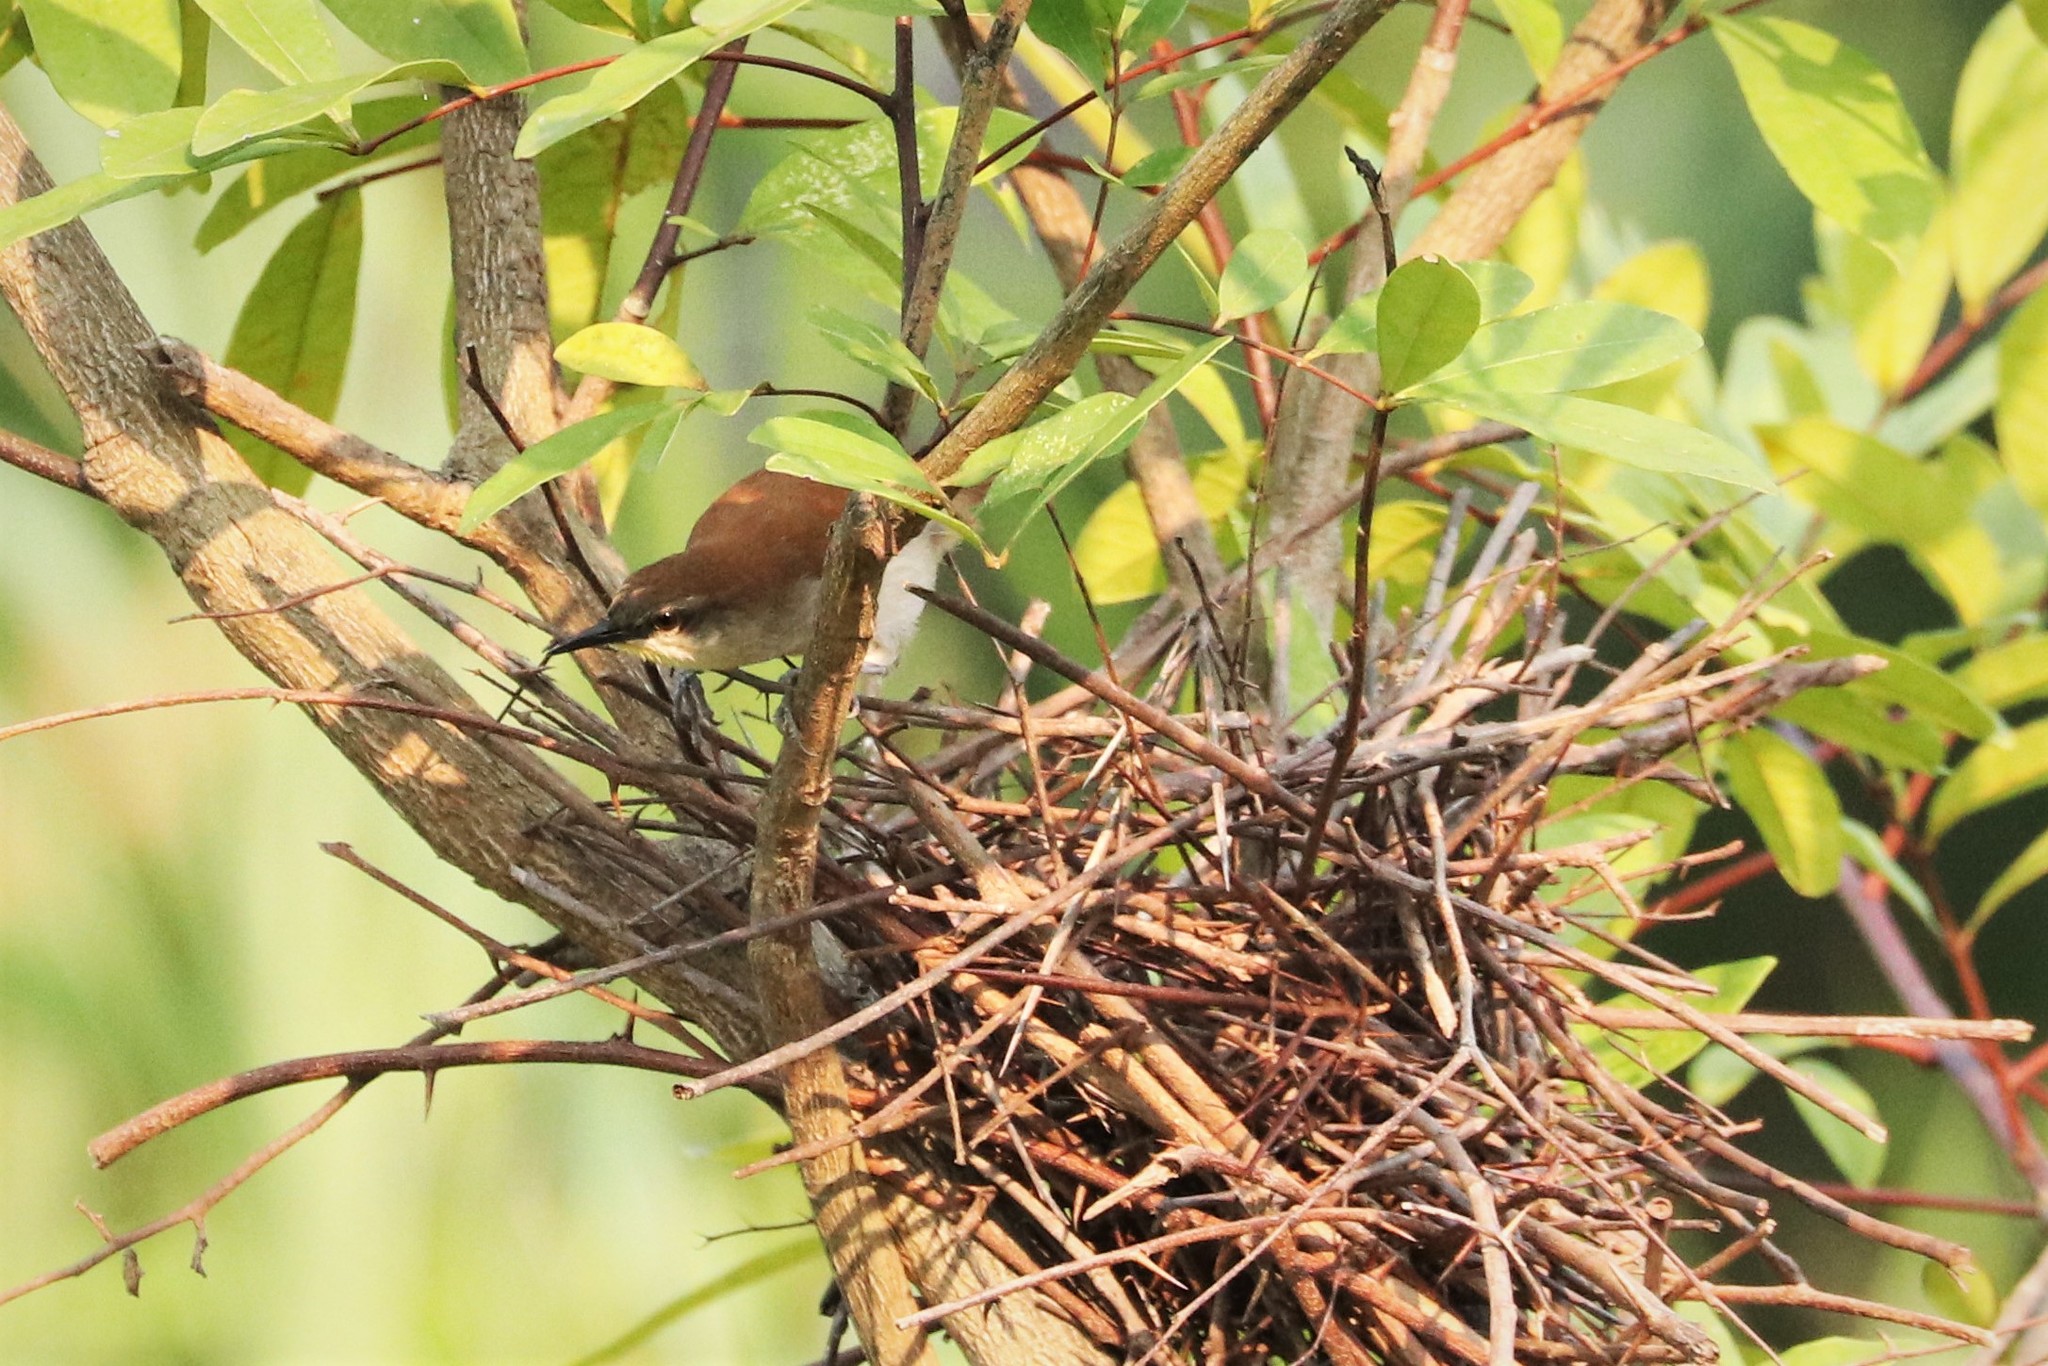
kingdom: Animalia
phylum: Chordata
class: Aves
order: Passeriformes
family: Furnariidae
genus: Certhiaxis
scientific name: Certhiaxis cinnamomeus
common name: Yellow-chinned spinetail
